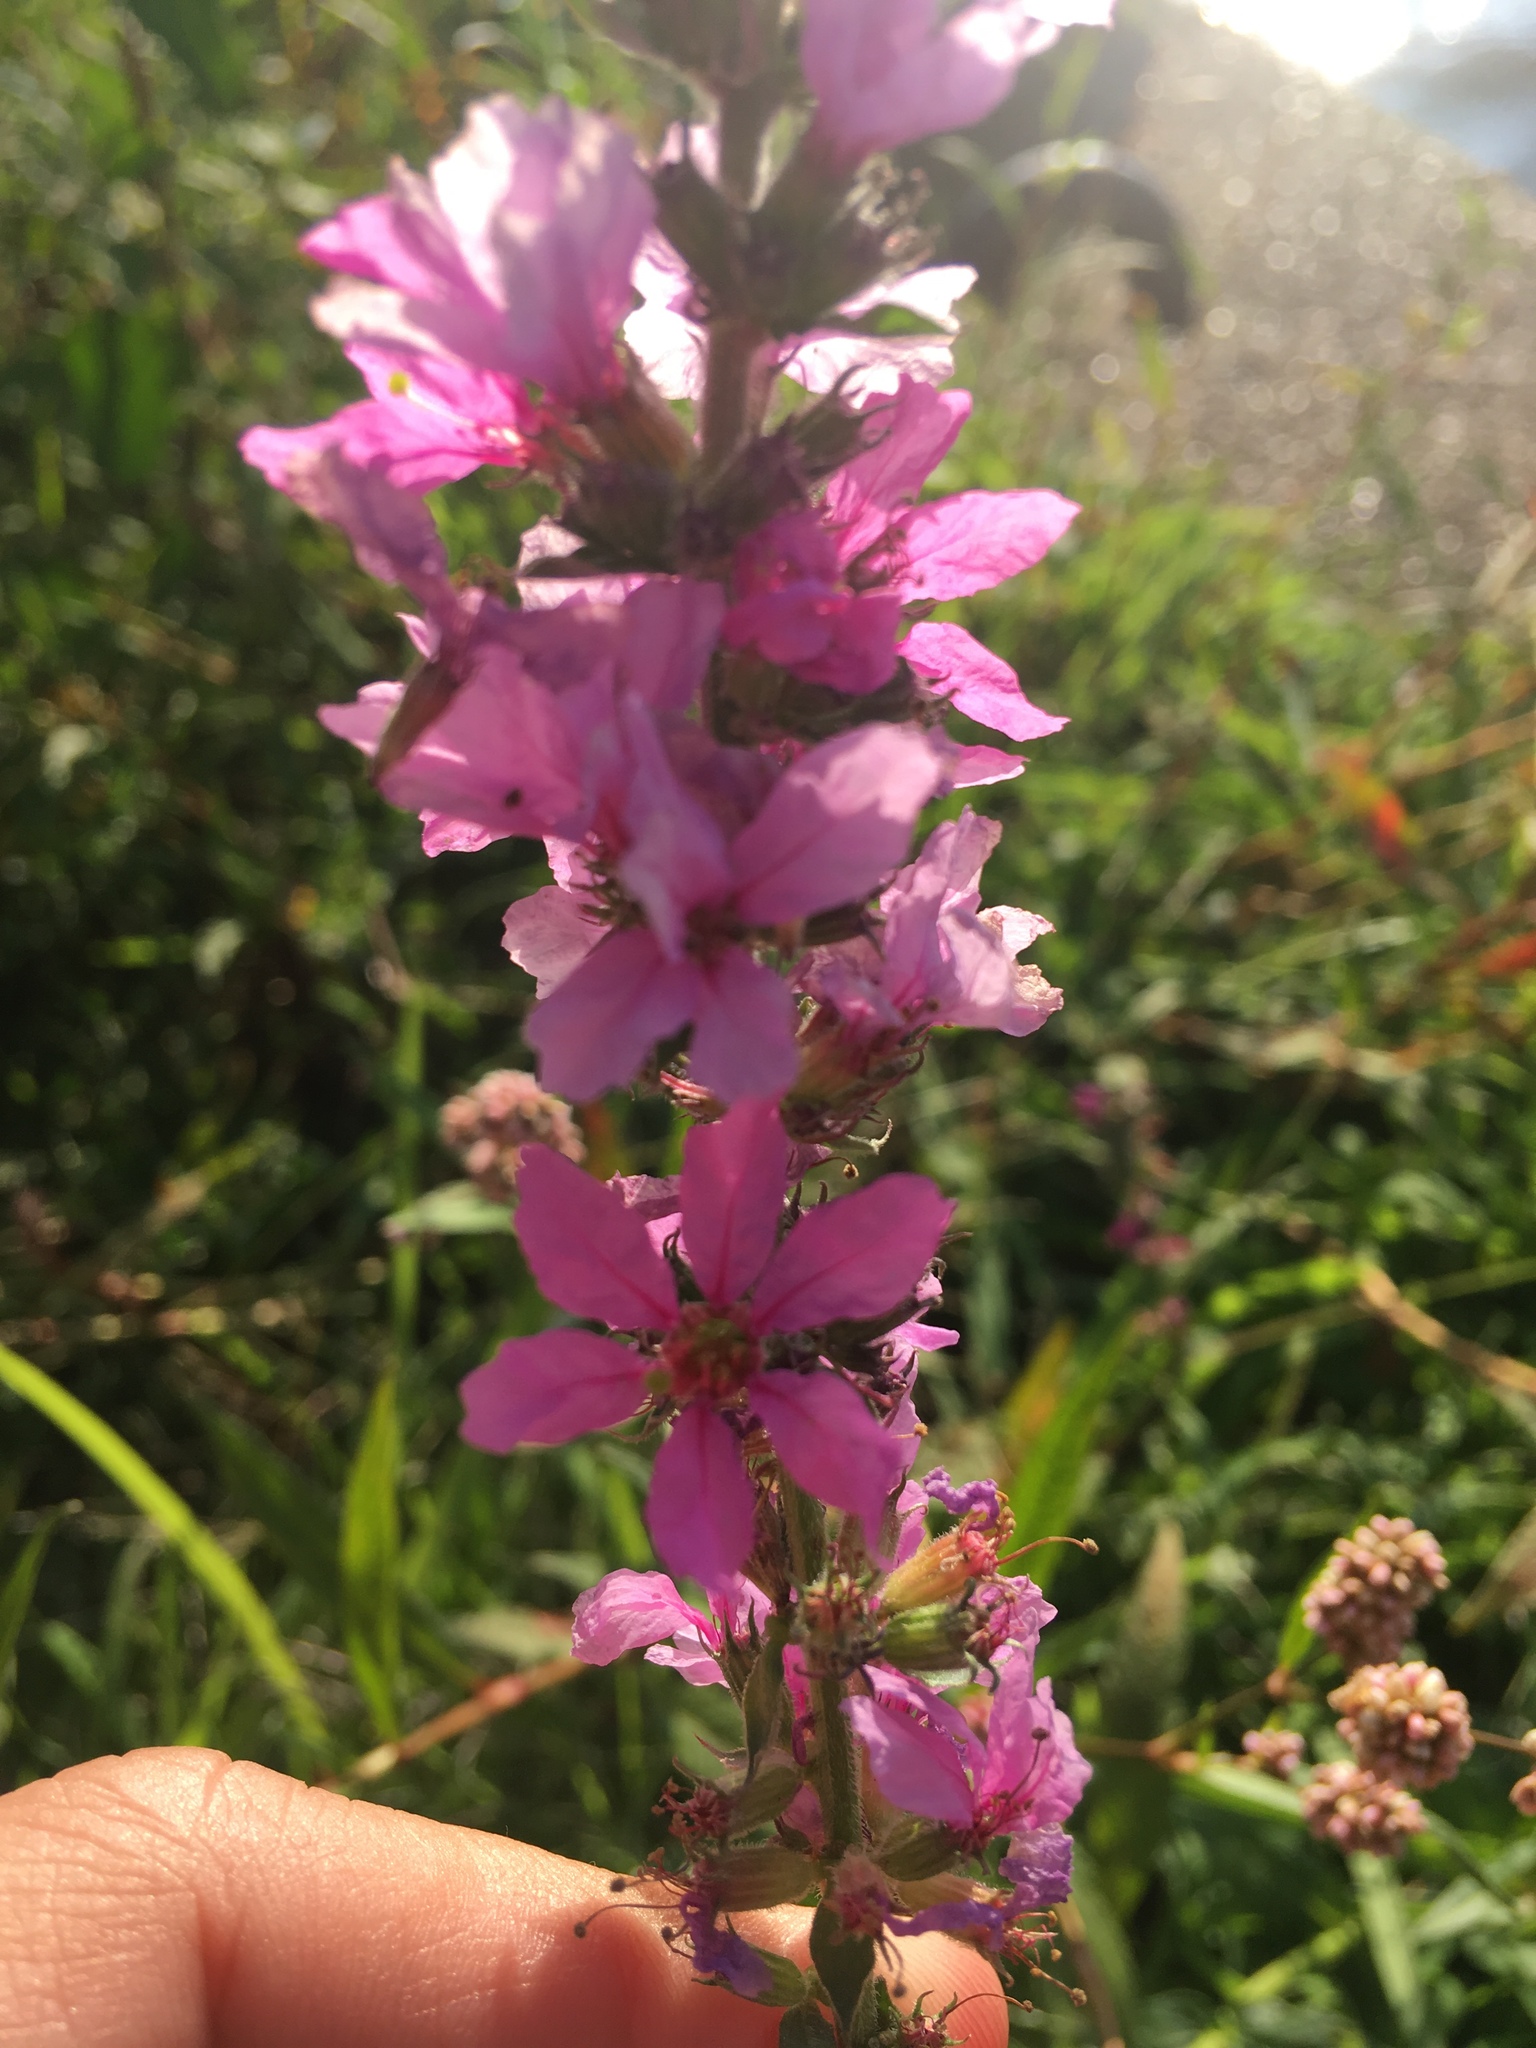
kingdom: Plantae
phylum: Tracheophyta
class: Magnoliopsida
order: Myrtales
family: Lythraceae
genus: Lythrum
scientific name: Lythrum salicaria
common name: Purple loosestrife
